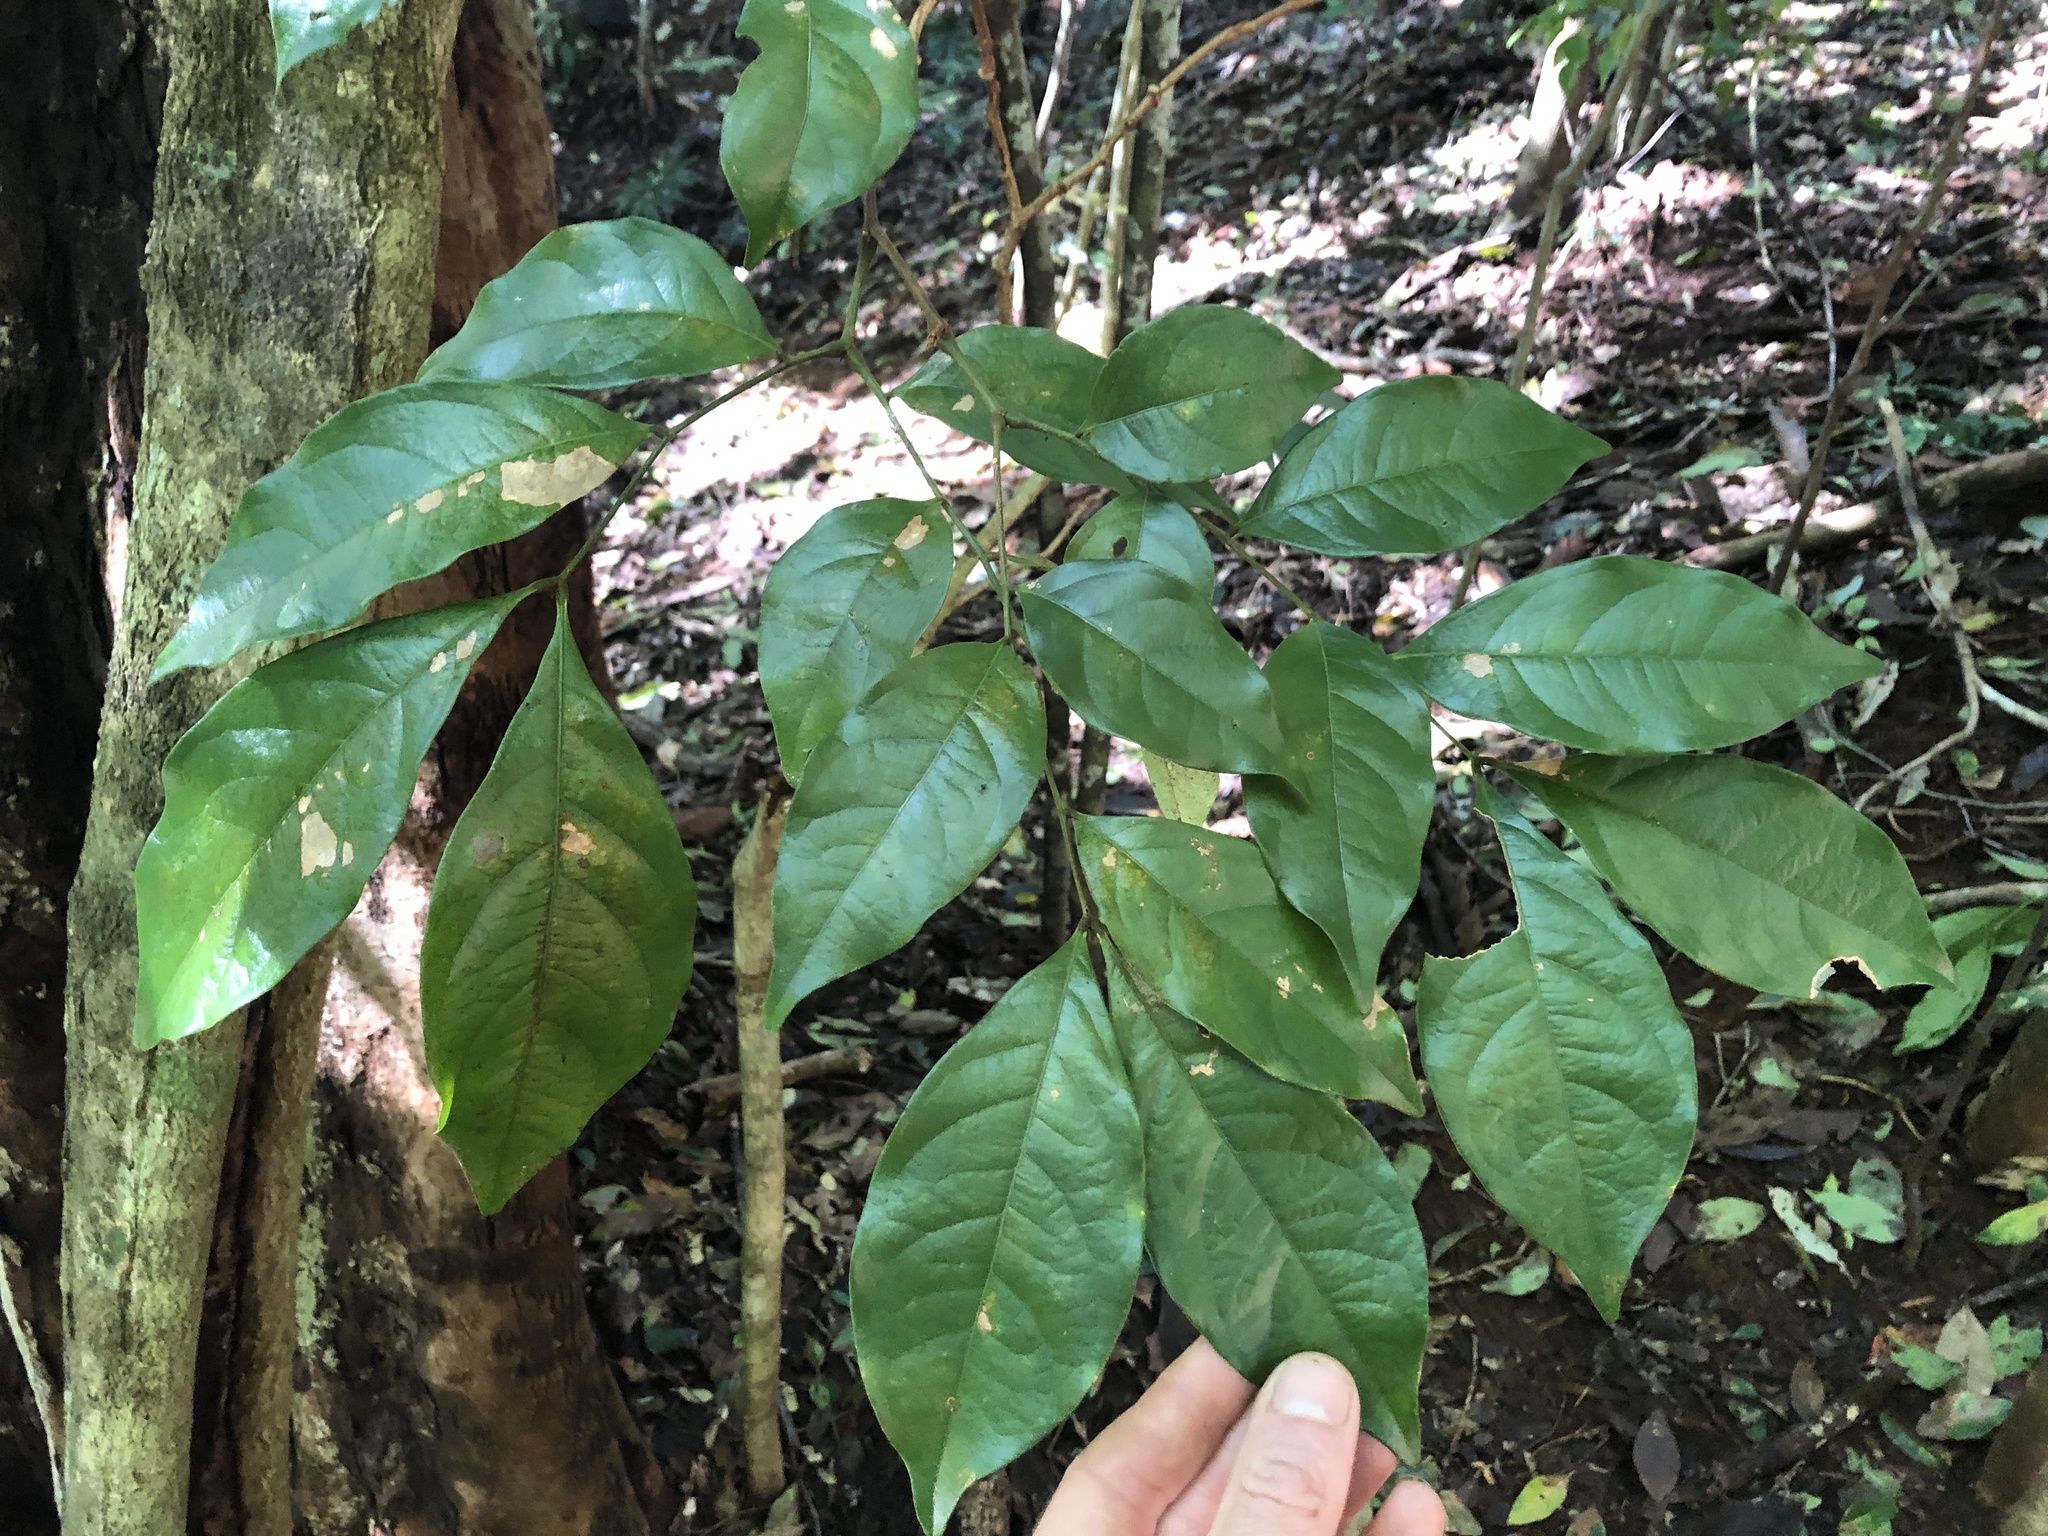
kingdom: Plantae
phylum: Tracheophyta
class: Magnoliopsida
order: Fabales
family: Fabaceae
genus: Archidendron
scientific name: Archidendron muellerianum
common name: Small-flower laceflower
